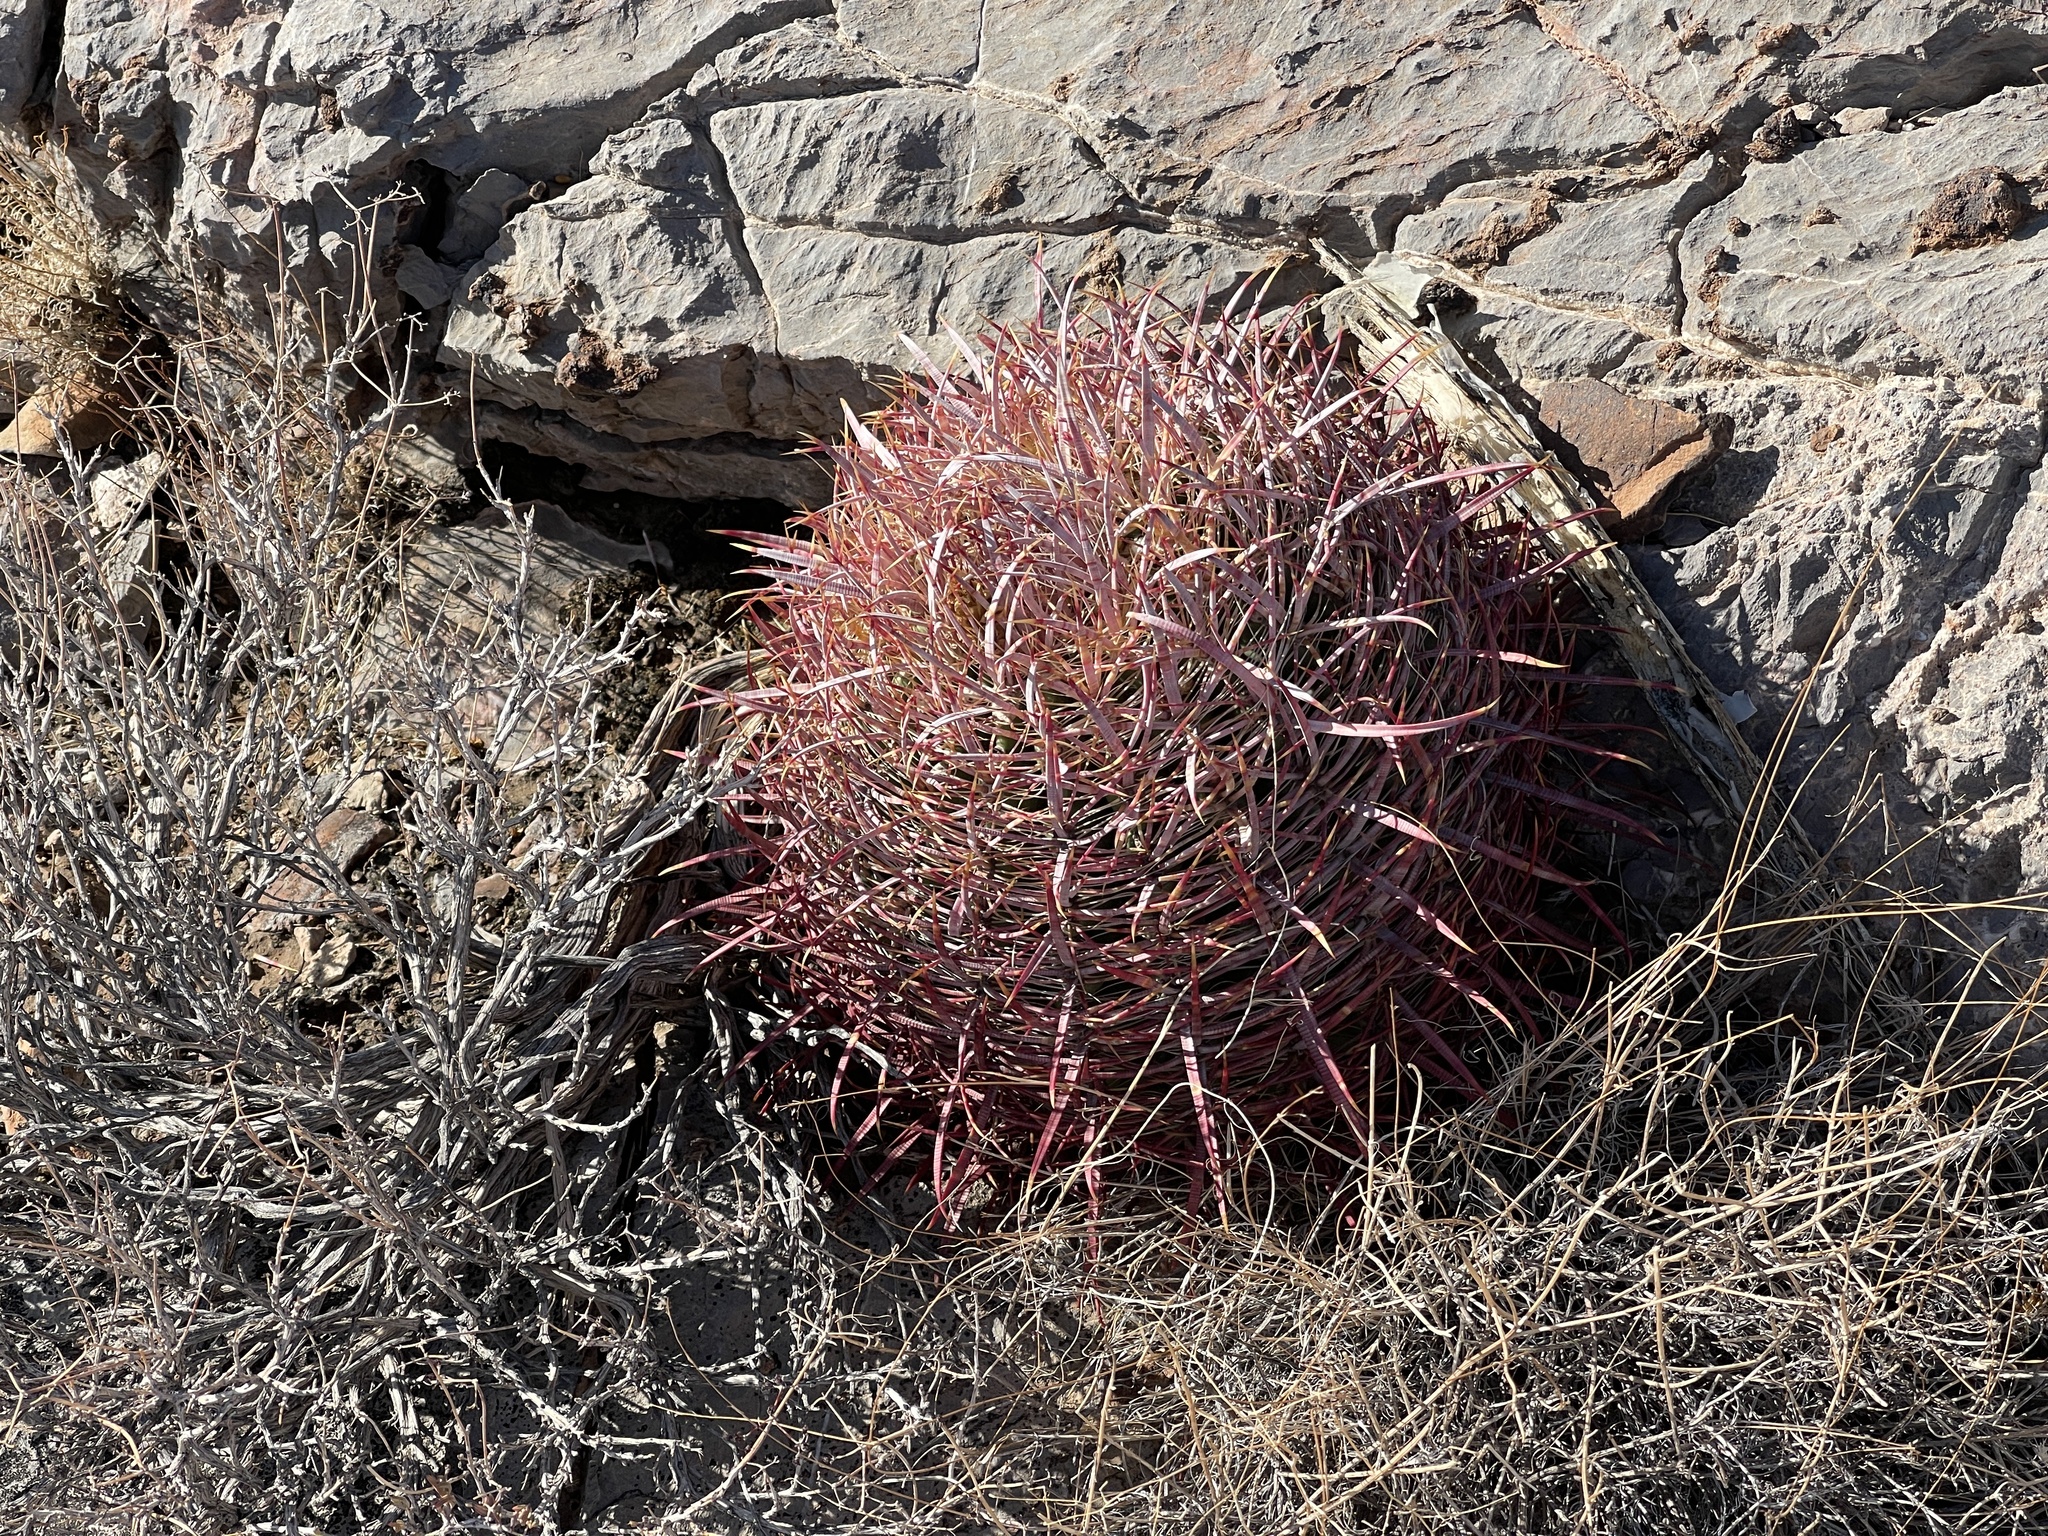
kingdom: Plantae
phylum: Tracheophyta
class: Magnoliopsida
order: Caryophyllales
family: Cactaceae
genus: Ferocactus
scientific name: Ferocactus cylindraceus
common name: California barrel cactus
